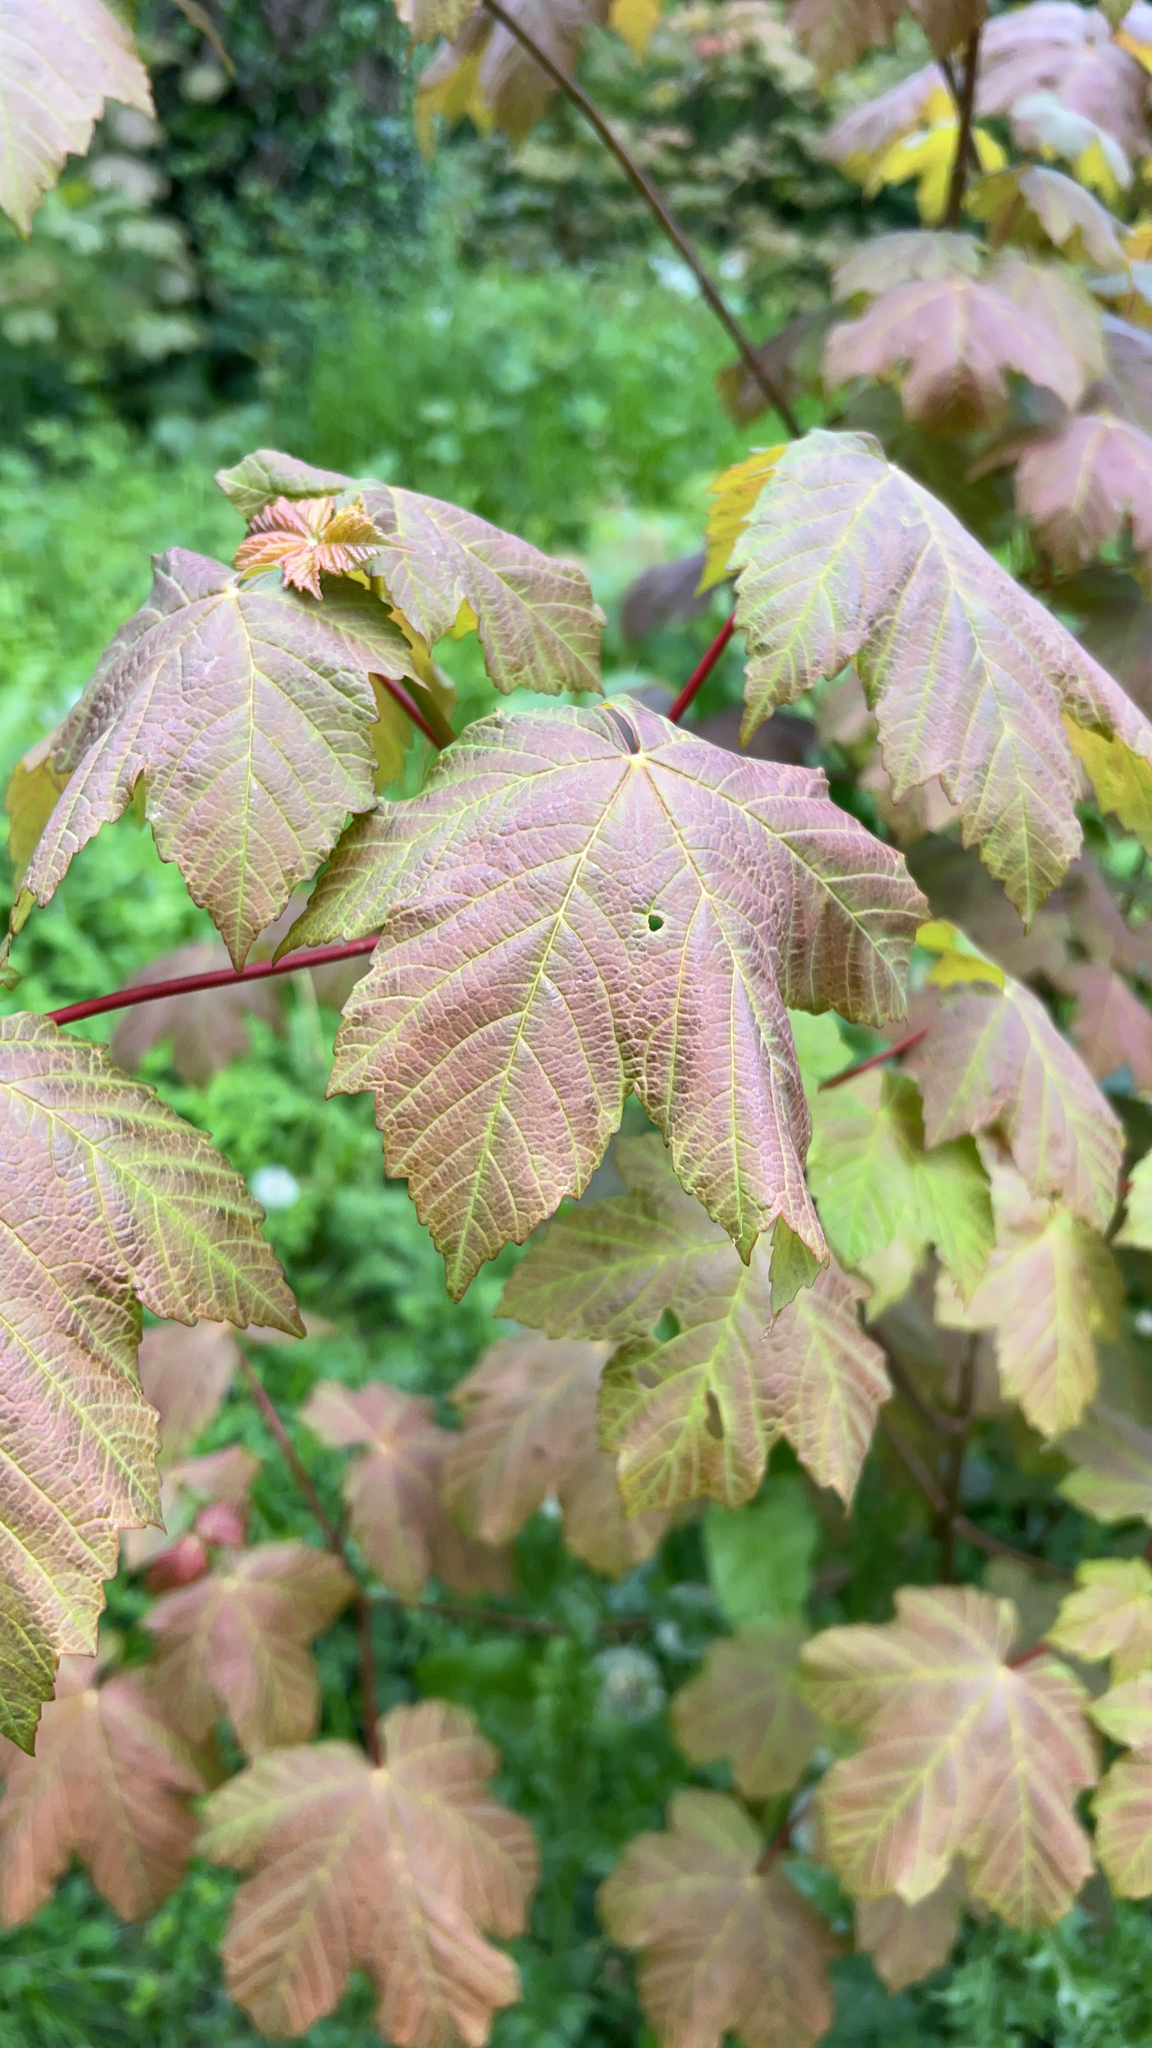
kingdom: Plantae
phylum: Tracheophyta
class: Magnoliopsida
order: Sapindales
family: Sapindaceae
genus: Acer
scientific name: Acer pseudoplatanus
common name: Sycamore
